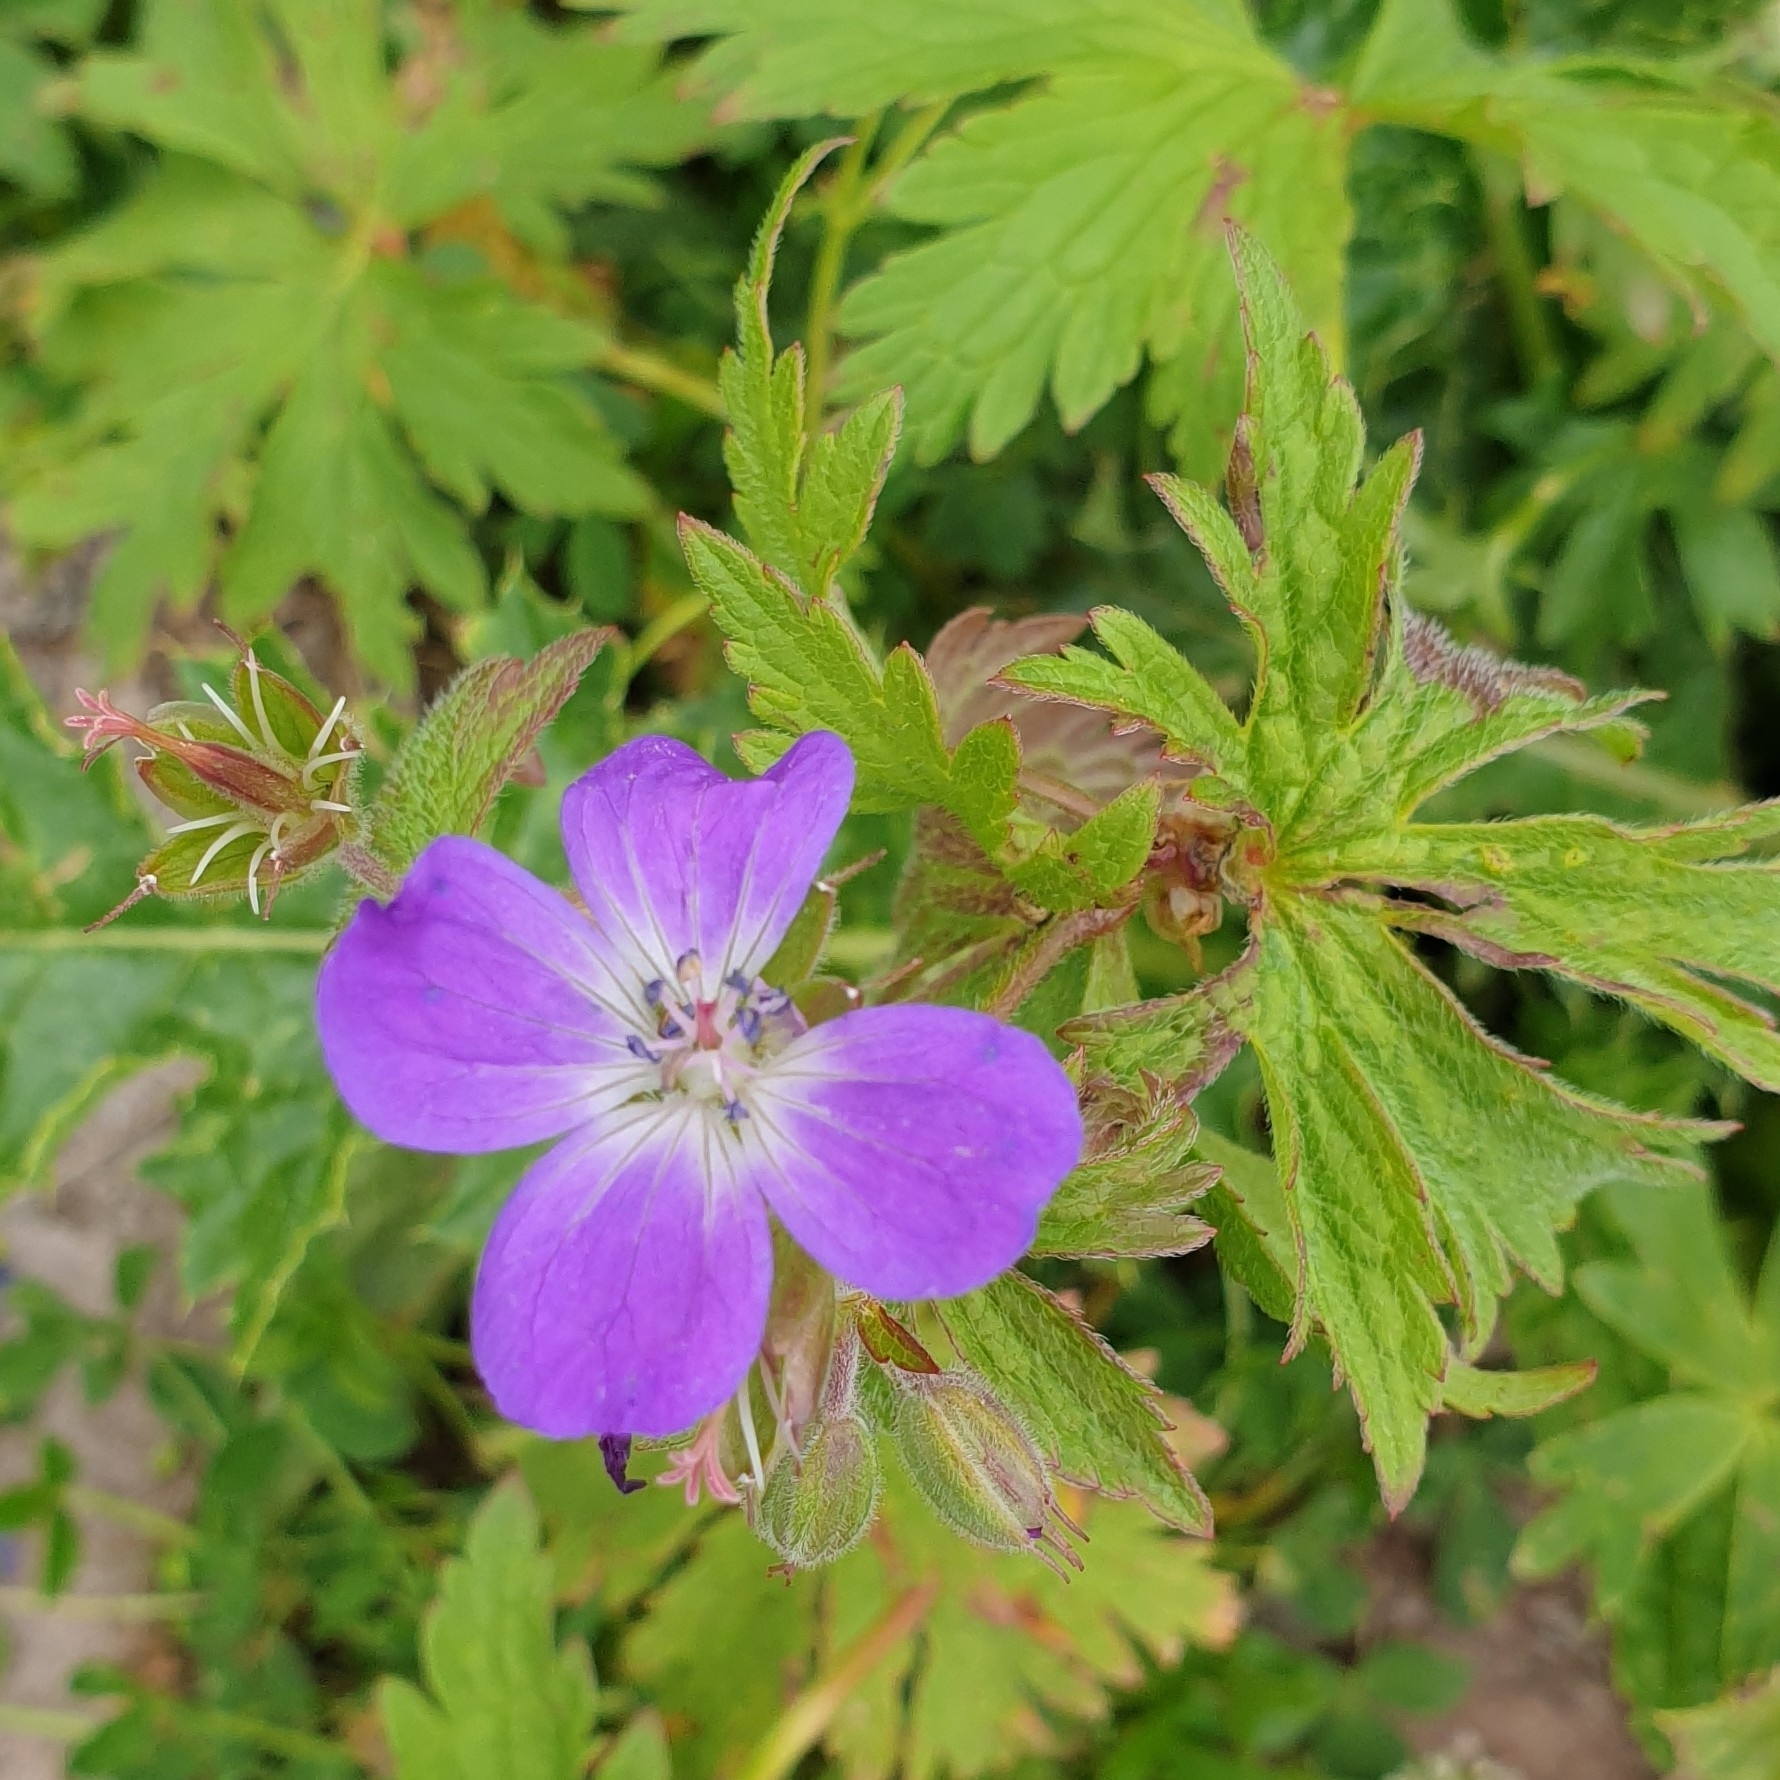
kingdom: Plantae
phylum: Tracheophyta
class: Magnoliopsida
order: Geraniales
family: Geraniaceae
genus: Geranium
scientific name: Geranium sylvaticum
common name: Wood crane's-bill
